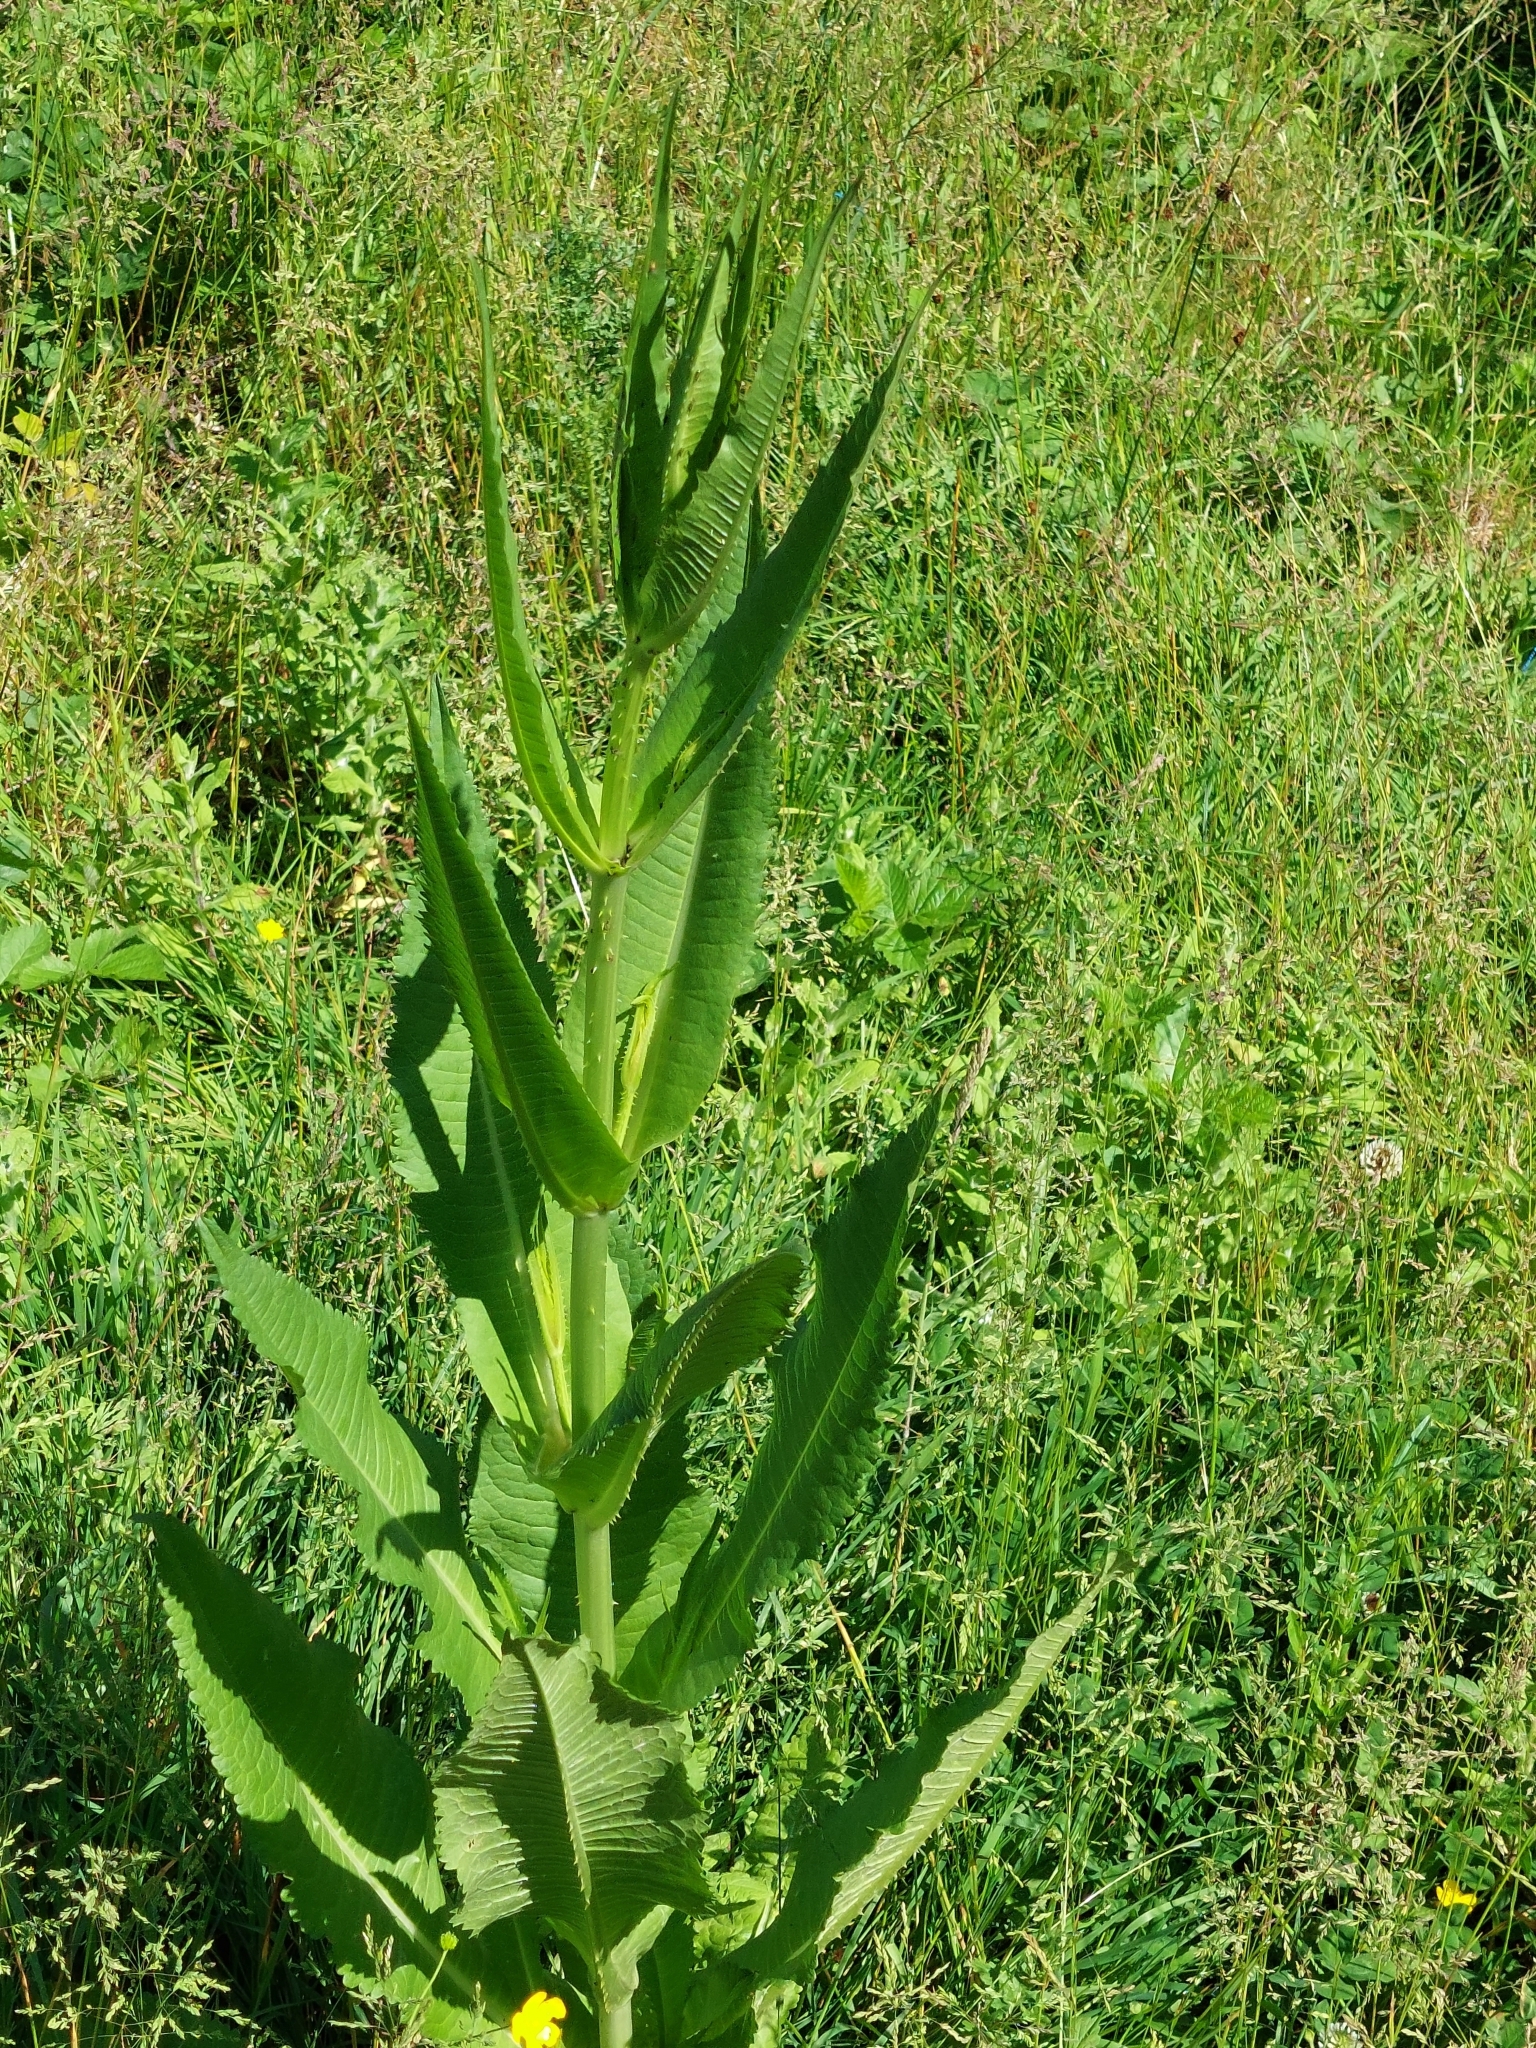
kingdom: Plantae
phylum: Tracheophyta
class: Magnoliopsida
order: Dipsacales
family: Caprifoliaceae
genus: Dipsacus
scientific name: Dipsacus fullonum
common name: Teasel
